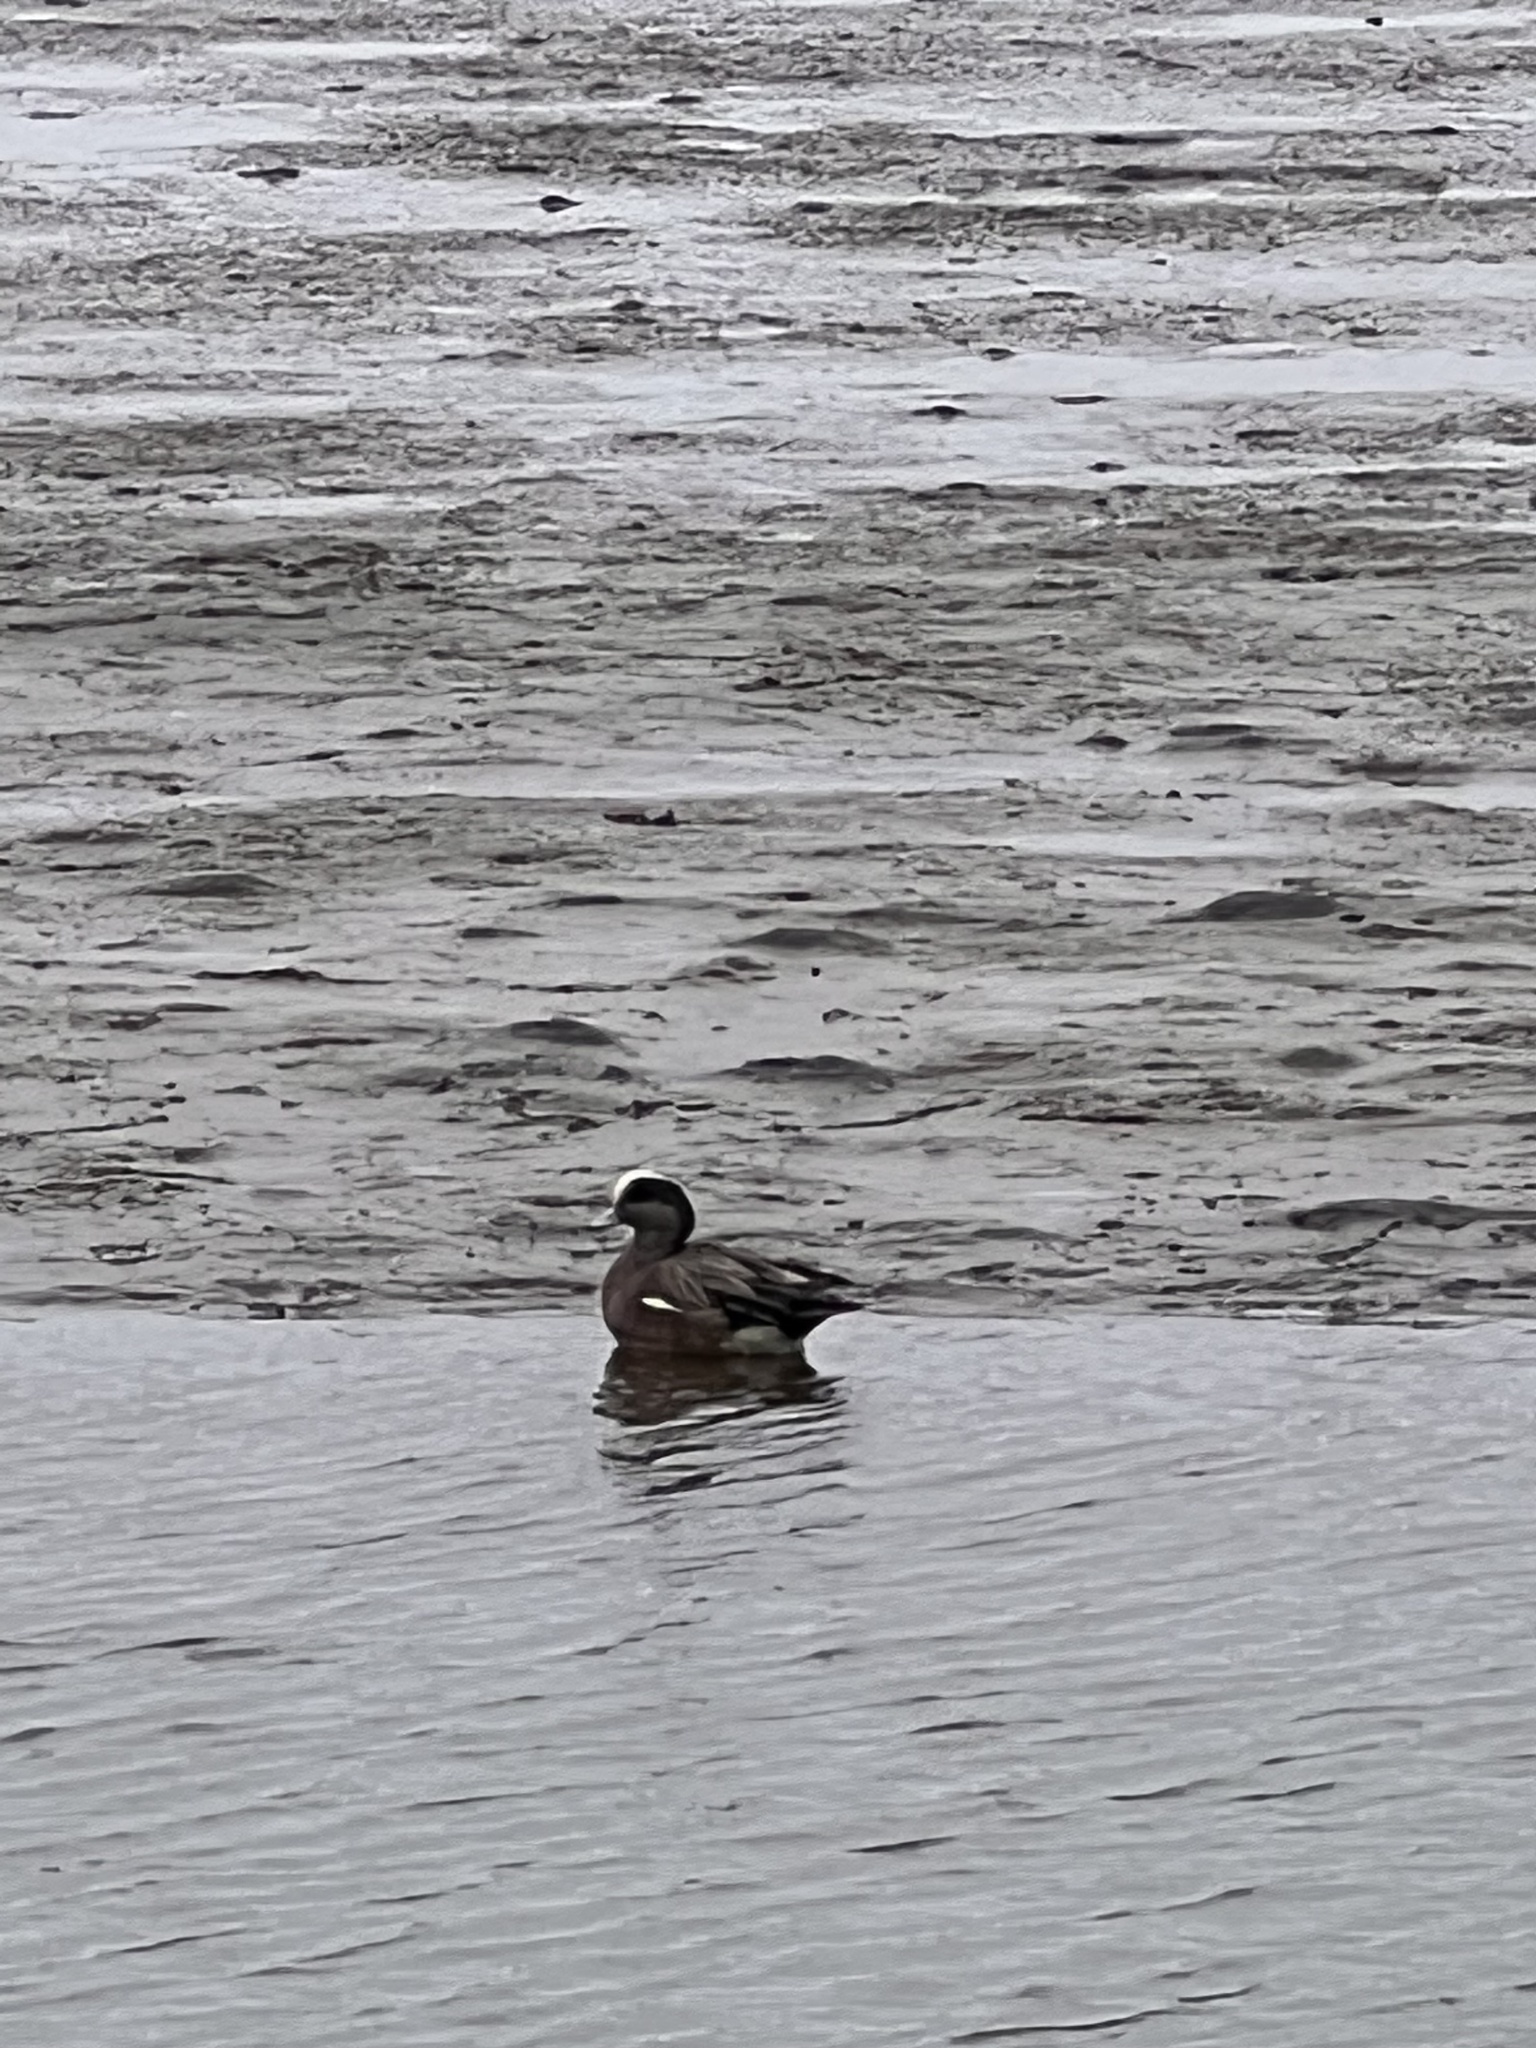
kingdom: Animalia
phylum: Chordata
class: Aves
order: Anseriformes
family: Anatidae
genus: Mareca
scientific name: Mareca americana
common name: American wigeon
